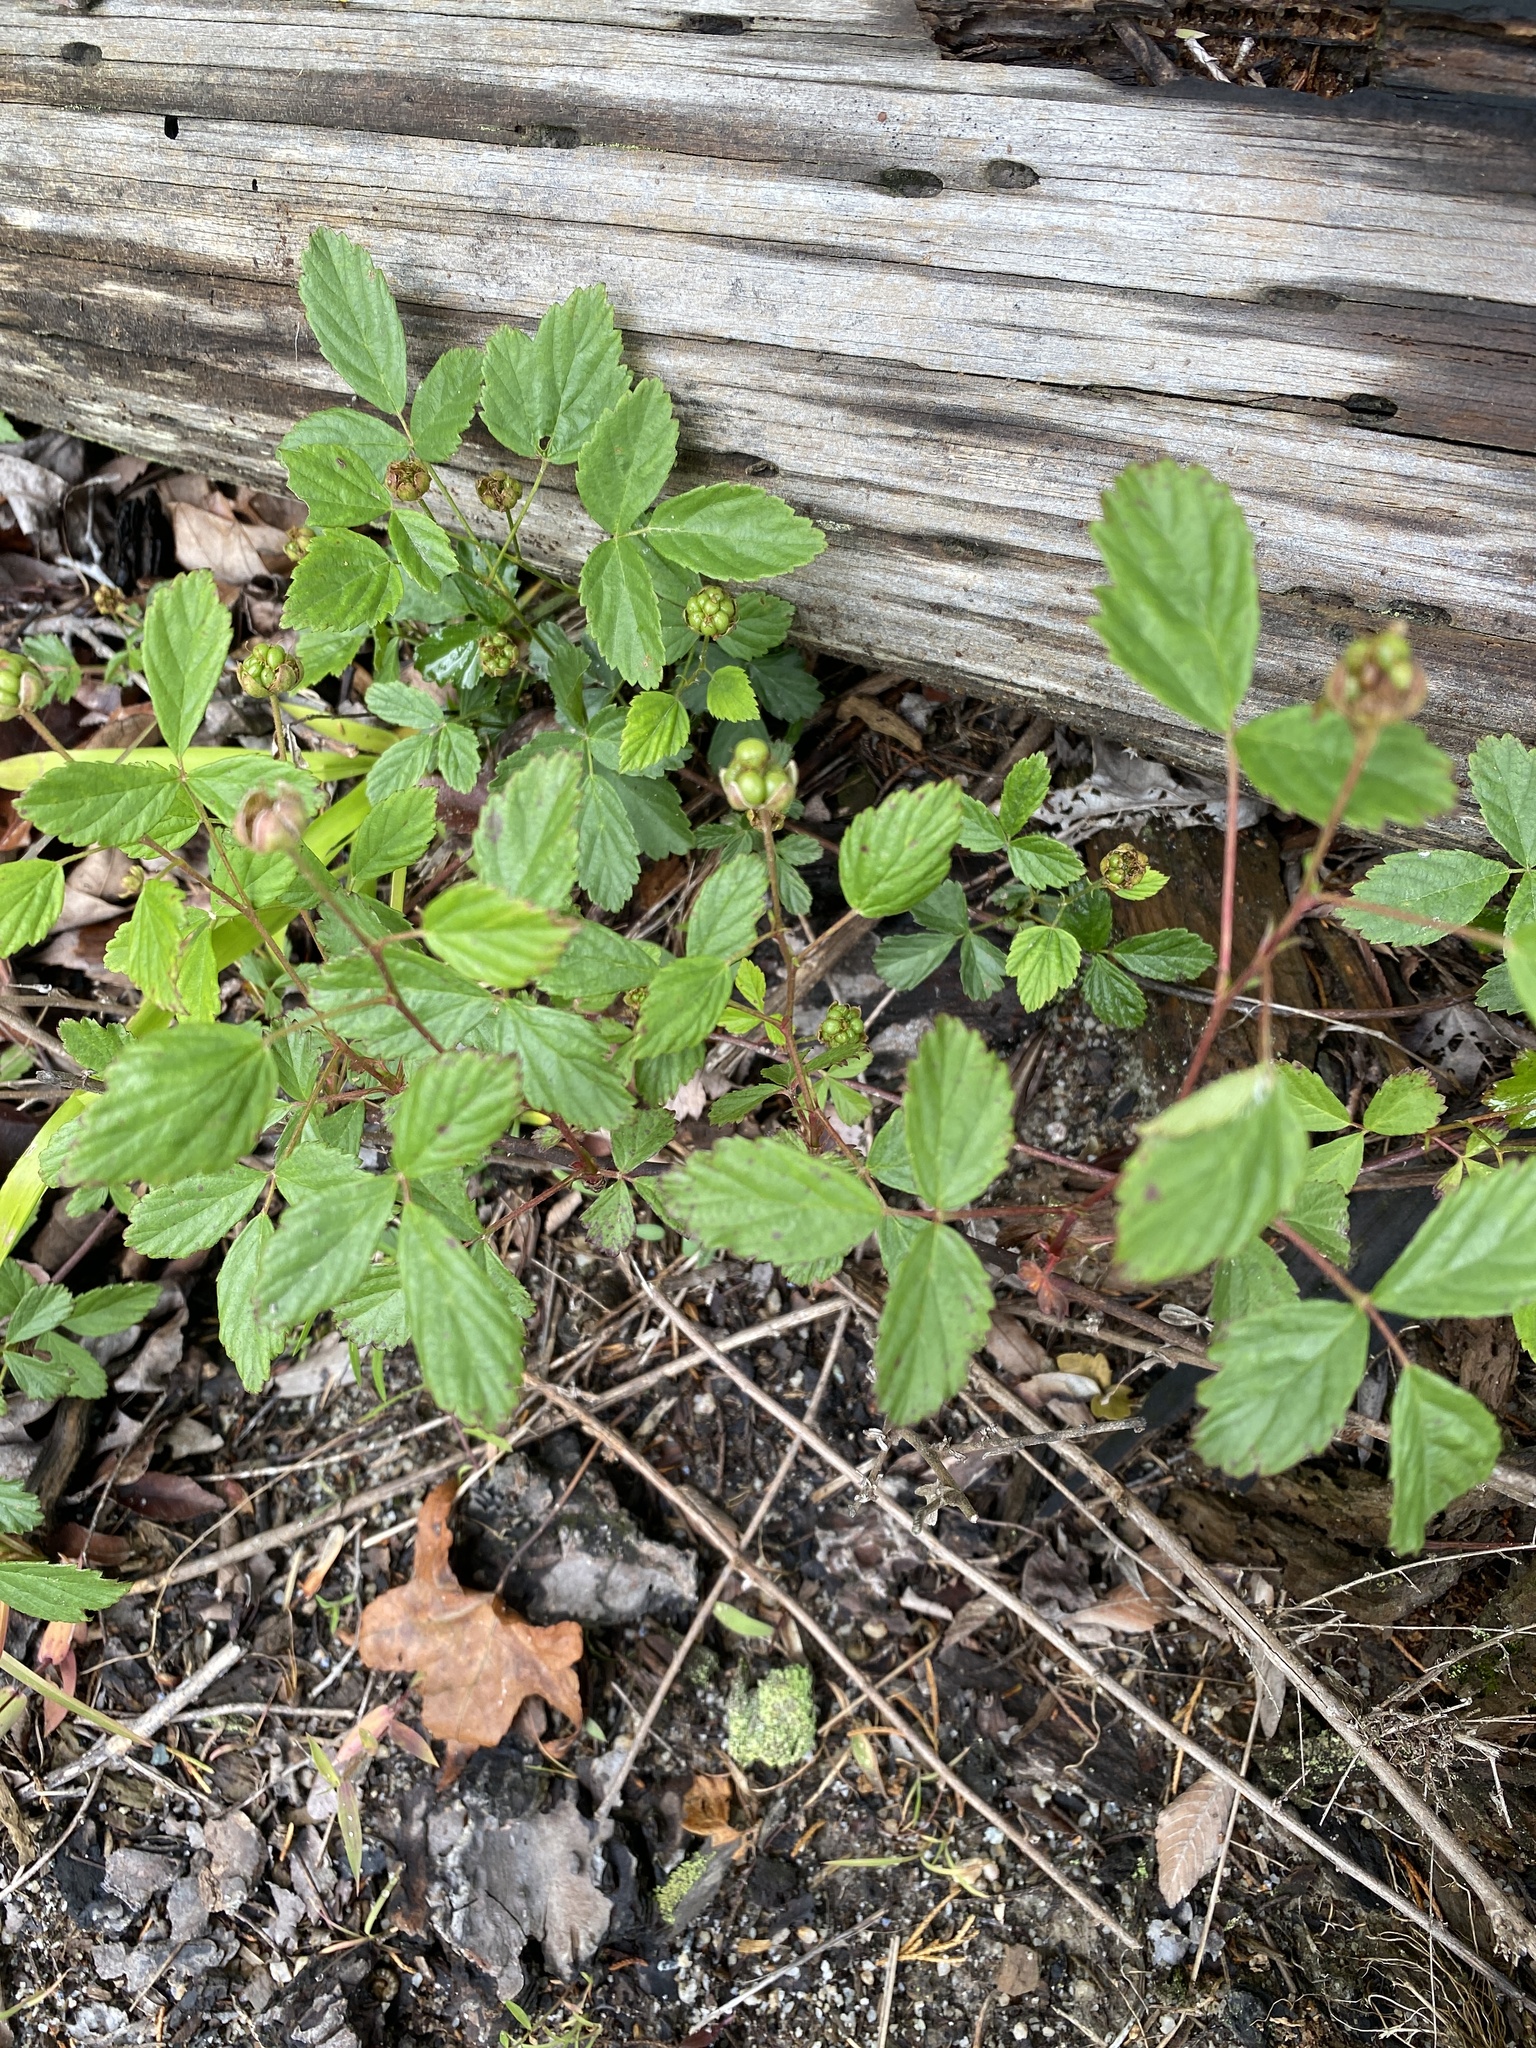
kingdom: Plantae
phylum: Tracheophyta
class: Magnoliopsida
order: Rosales
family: Rosaceae
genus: Rubus
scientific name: Rubus trivialis
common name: Southern dewberry
